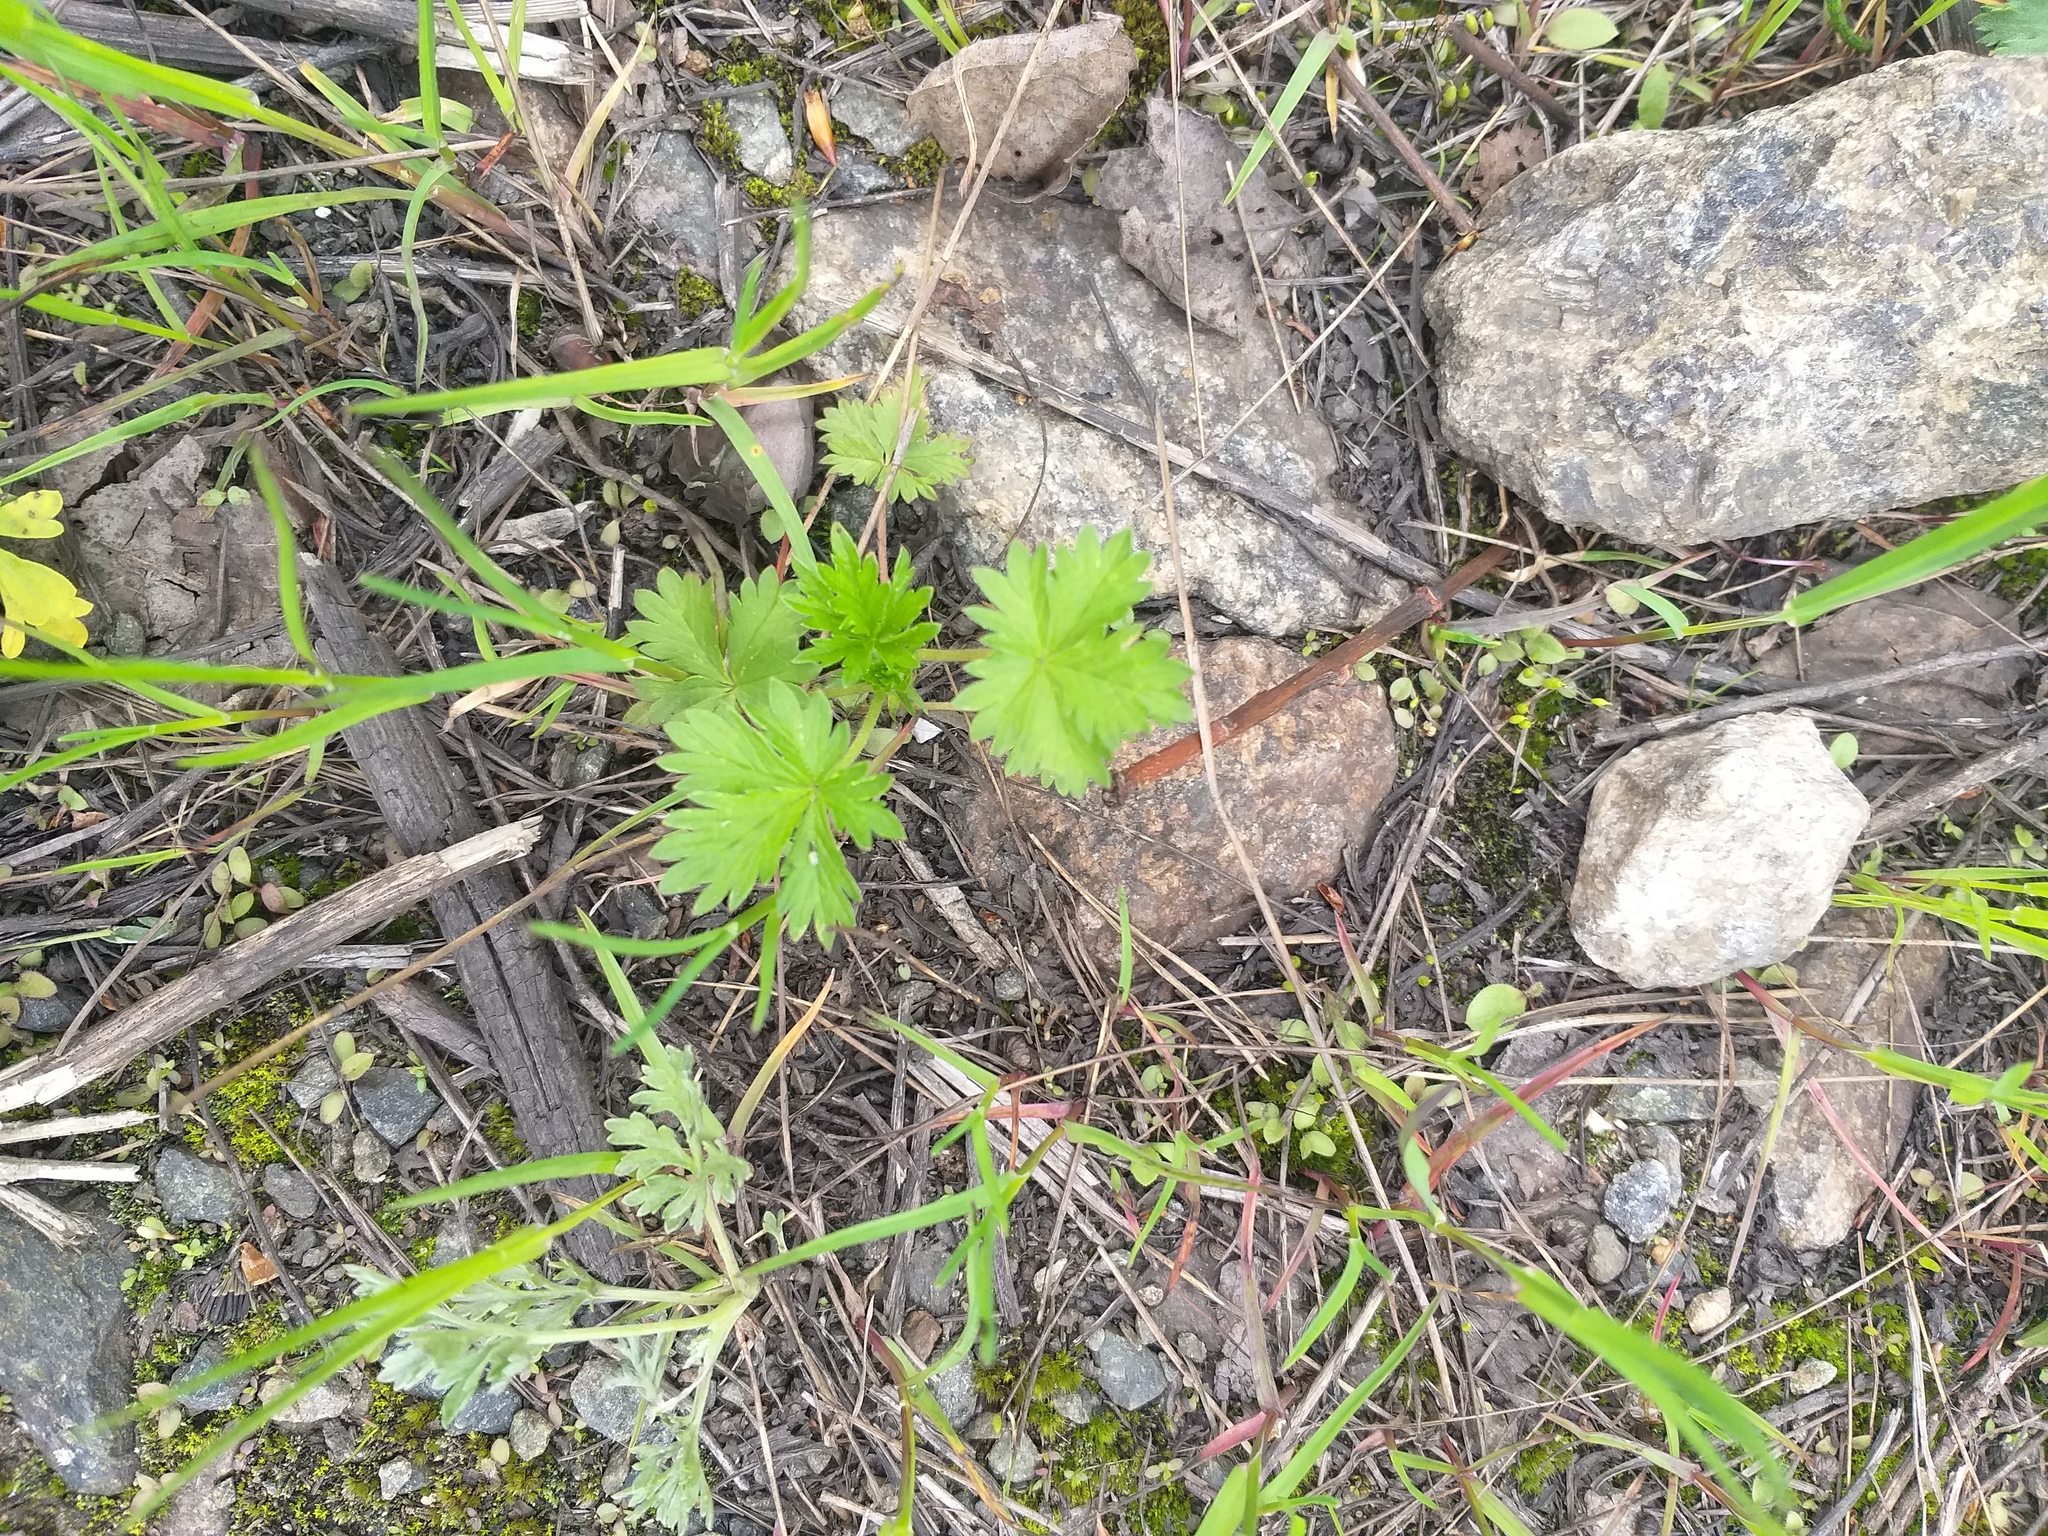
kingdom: Plantae
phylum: Tracheophyta
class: Magnoliopsida
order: Rosales
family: Rosaceae
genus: Potentilla
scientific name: Potentilla intermedia
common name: Downy cinquefoil
